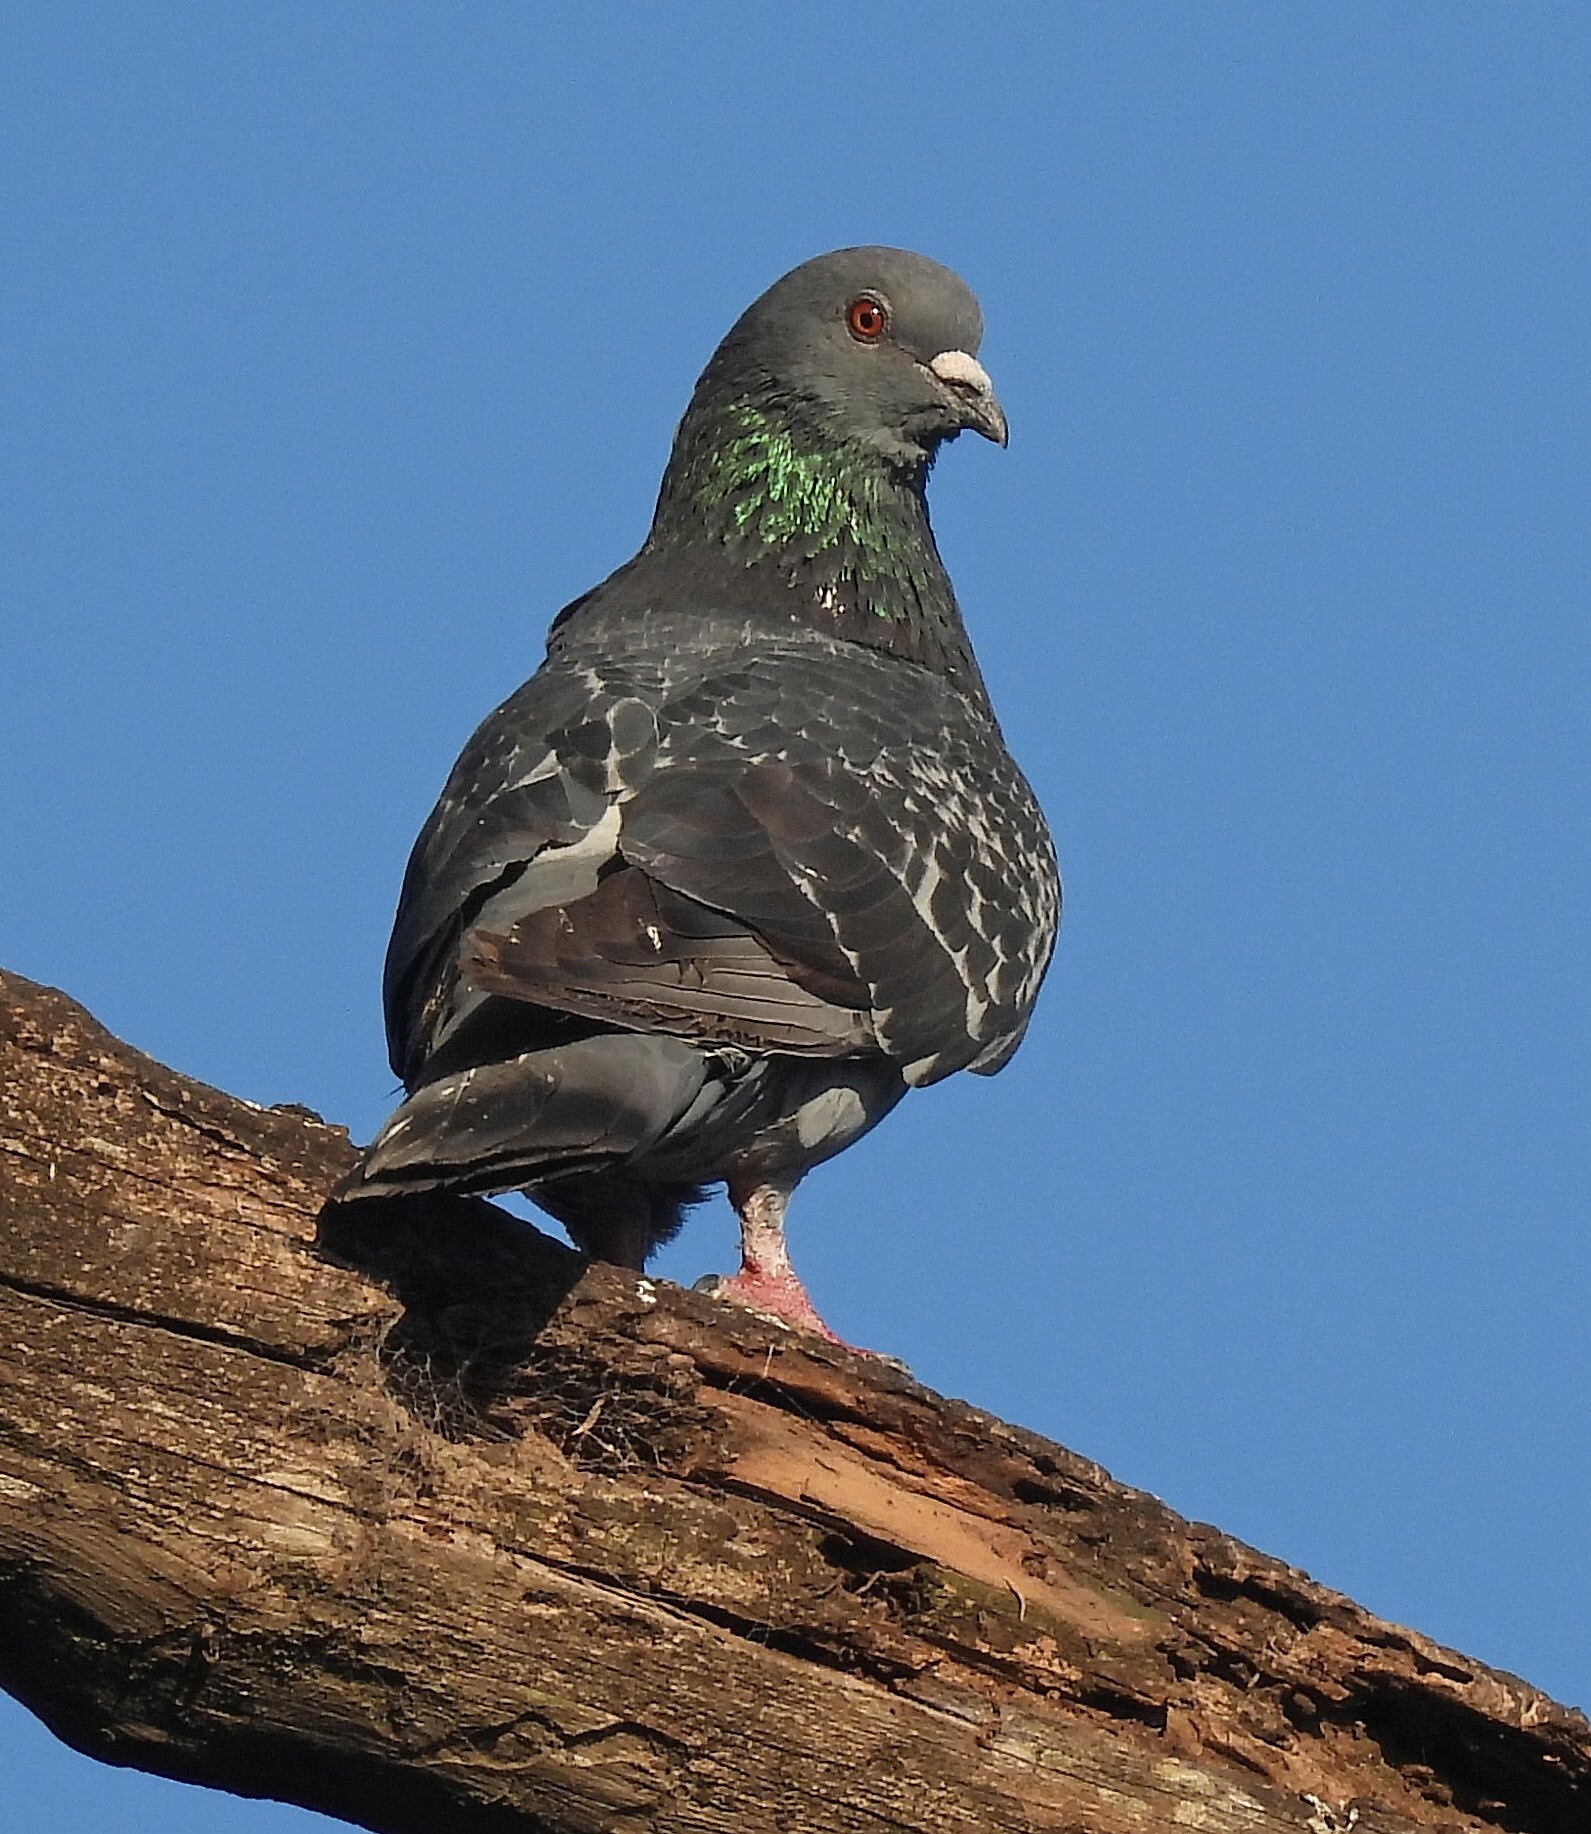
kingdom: Animalia
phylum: Chordata
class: Aves
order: Columbiformes
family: Columbidae
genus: Columba
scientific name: Columba livia
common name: Rock pigeon
